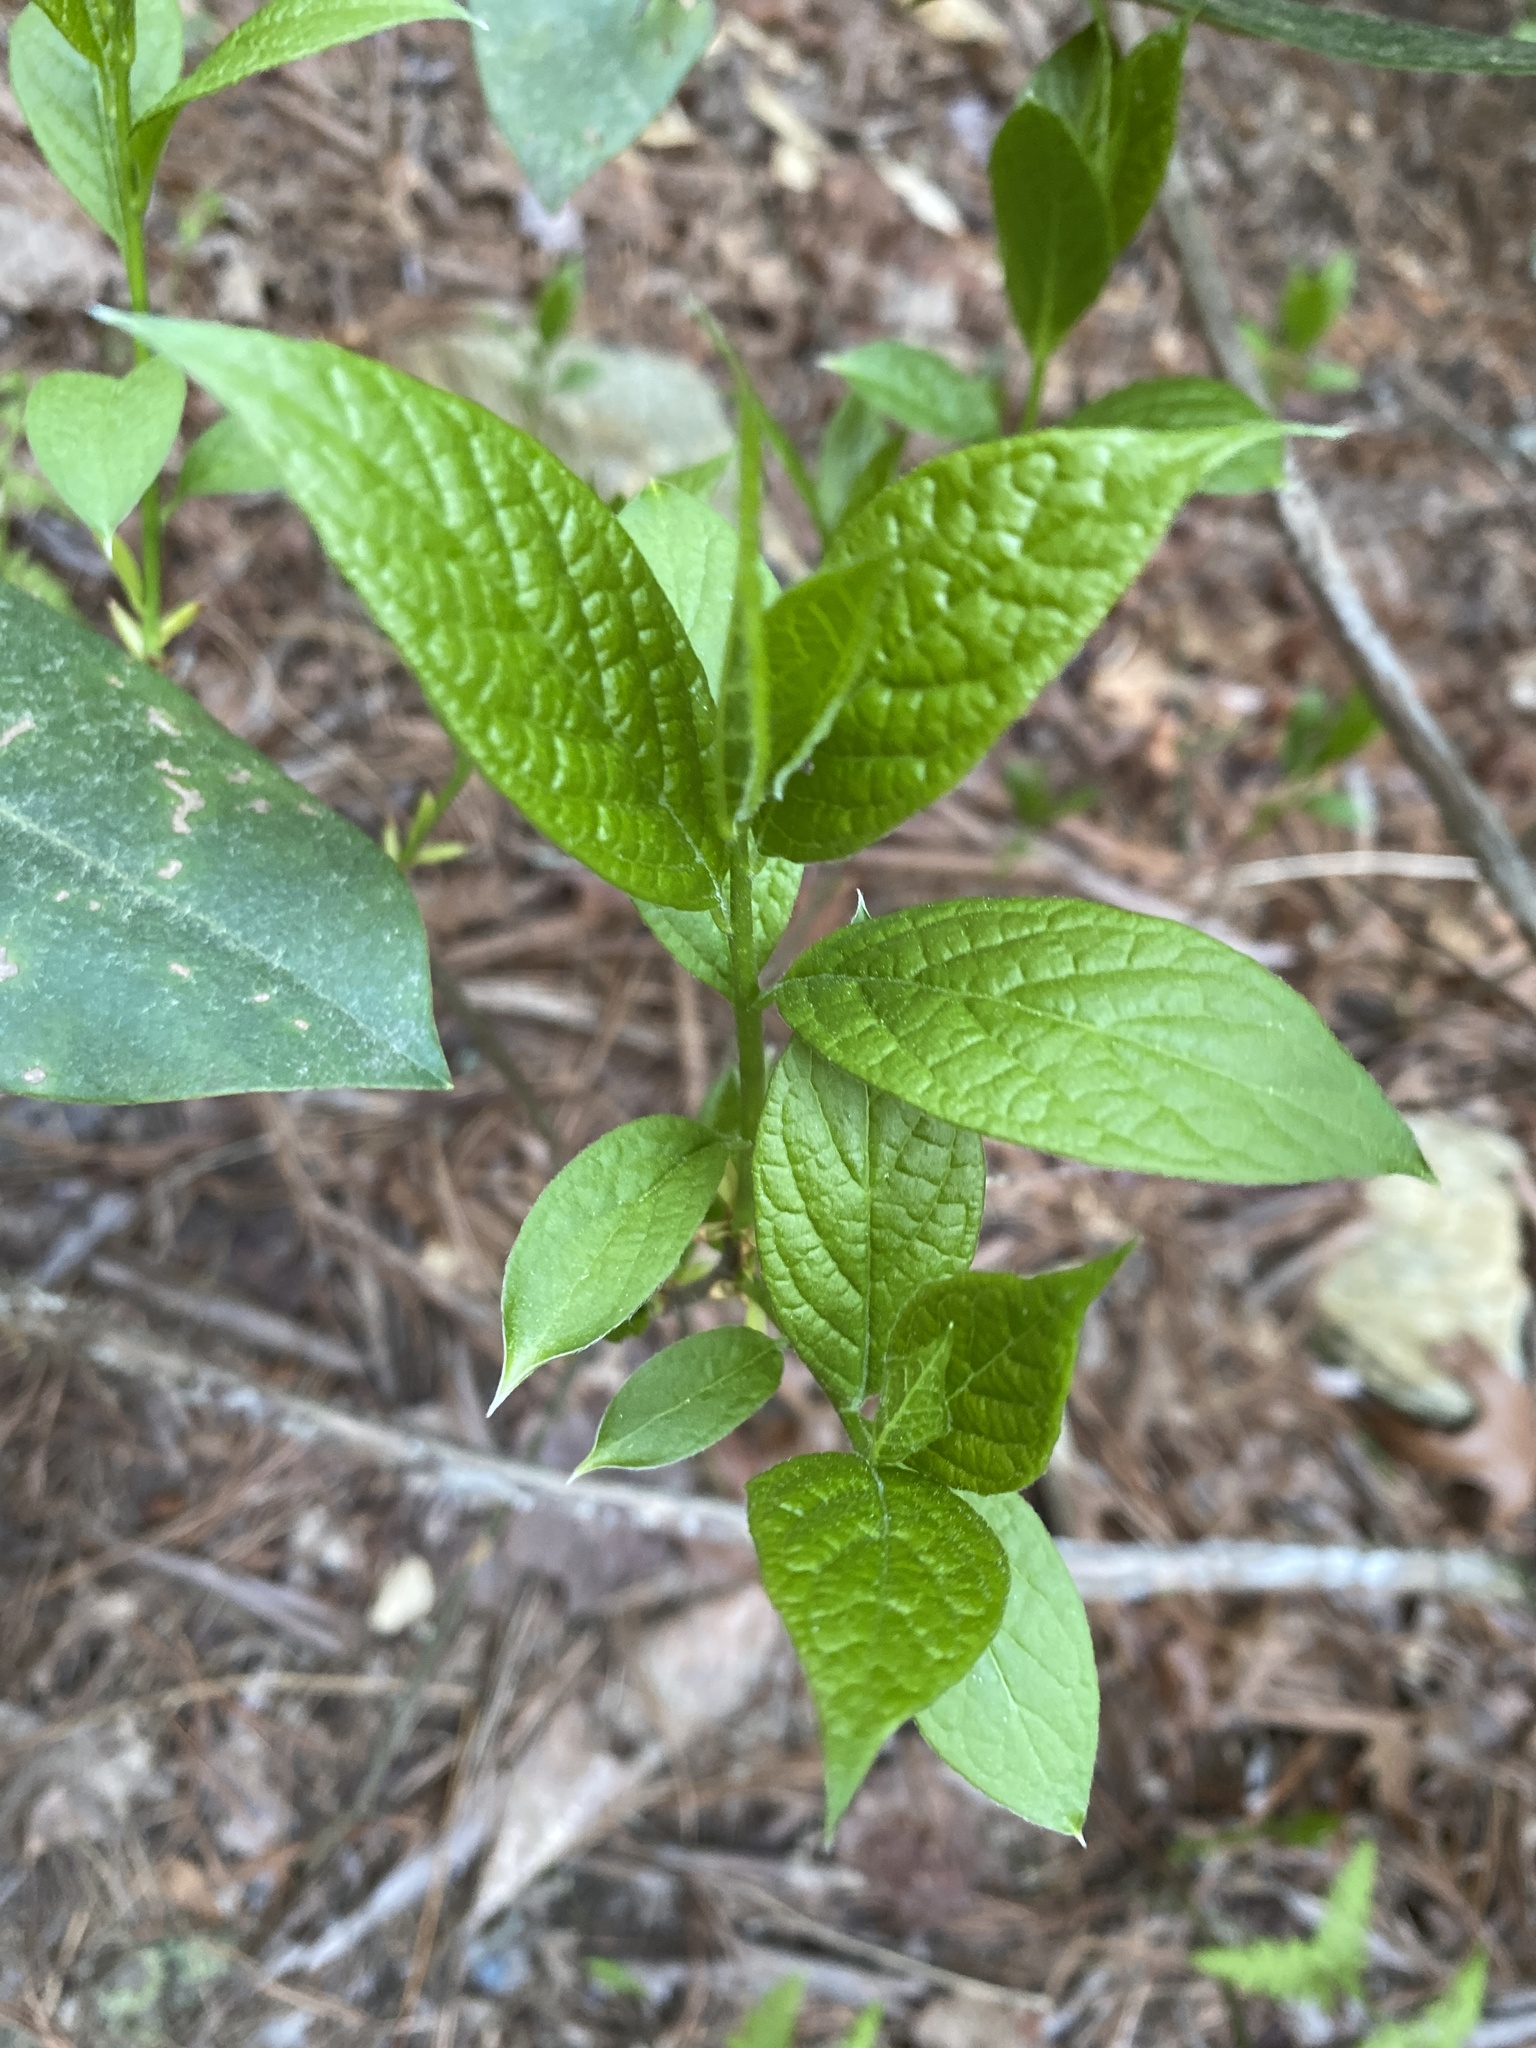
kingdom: Plantae
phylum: Tracheophyta
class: Magnoliopsida
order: Santalales
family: Cervantesiaceae
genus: Pyrularia
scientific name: Pyrularia pubera
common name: Oilnut
